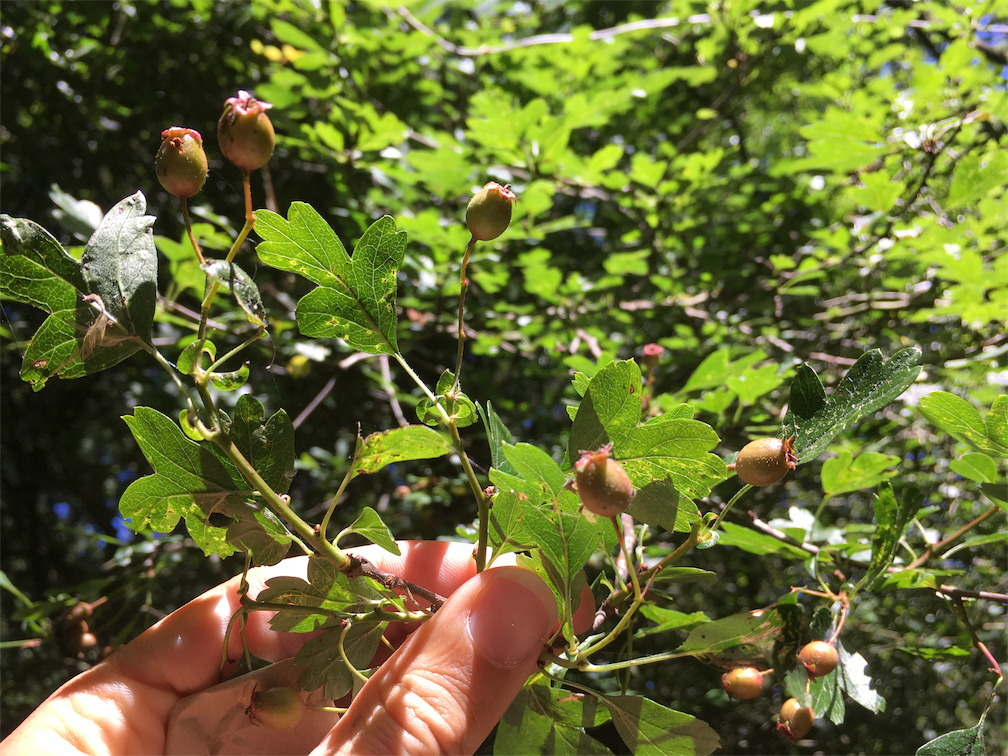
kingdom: Plantae
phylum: Tracheophyta
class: Magnoliopsida
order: Rosales
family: Rosaceae
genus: Crataegus
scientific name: Crataegus monogyna
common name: Hawthorn
